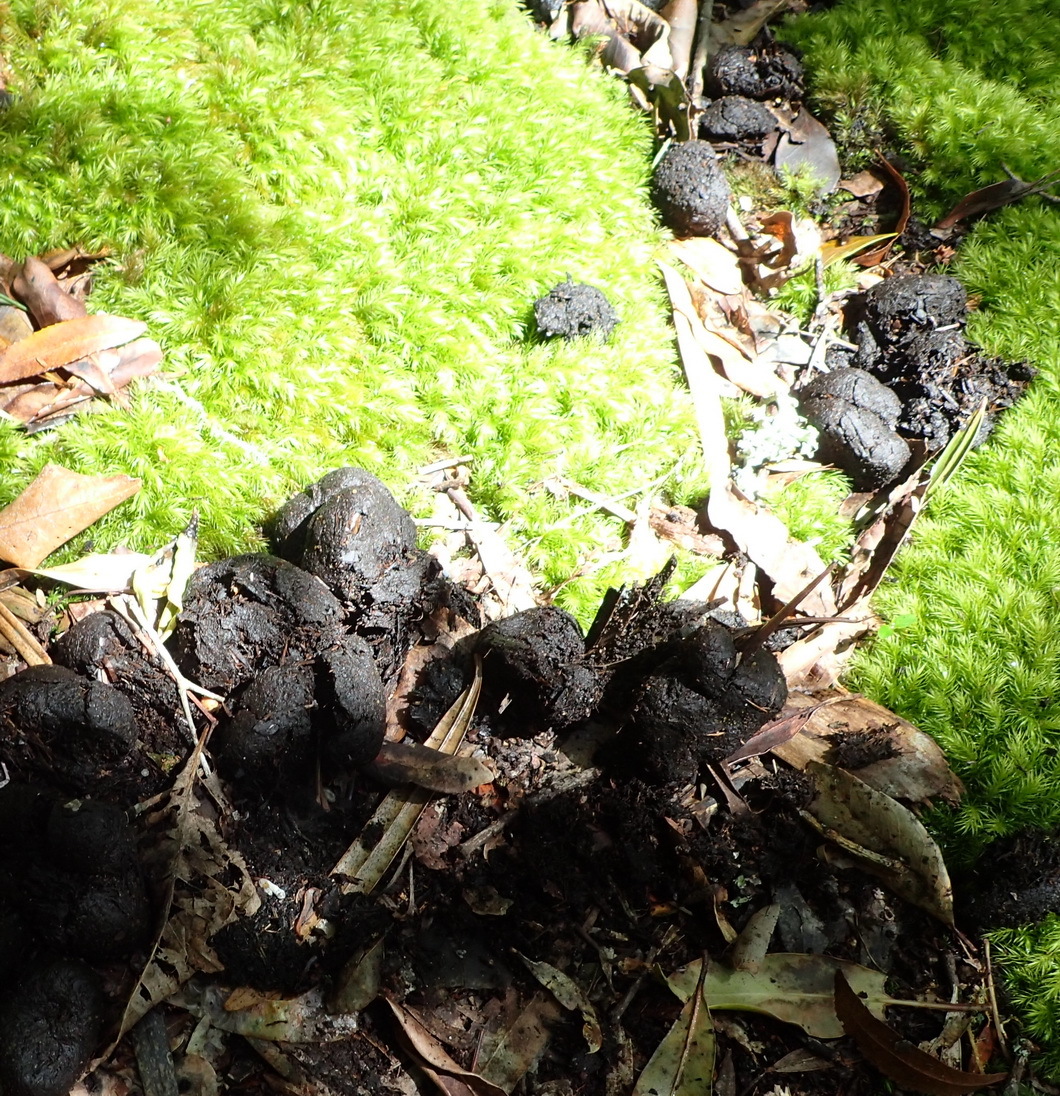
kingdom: Animalia
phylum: Chordata
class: Mammalia
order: Artiodactyla
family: Suidae
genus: Potamochoerus
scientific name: Potamochoerus larvatus
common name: Bushpig
